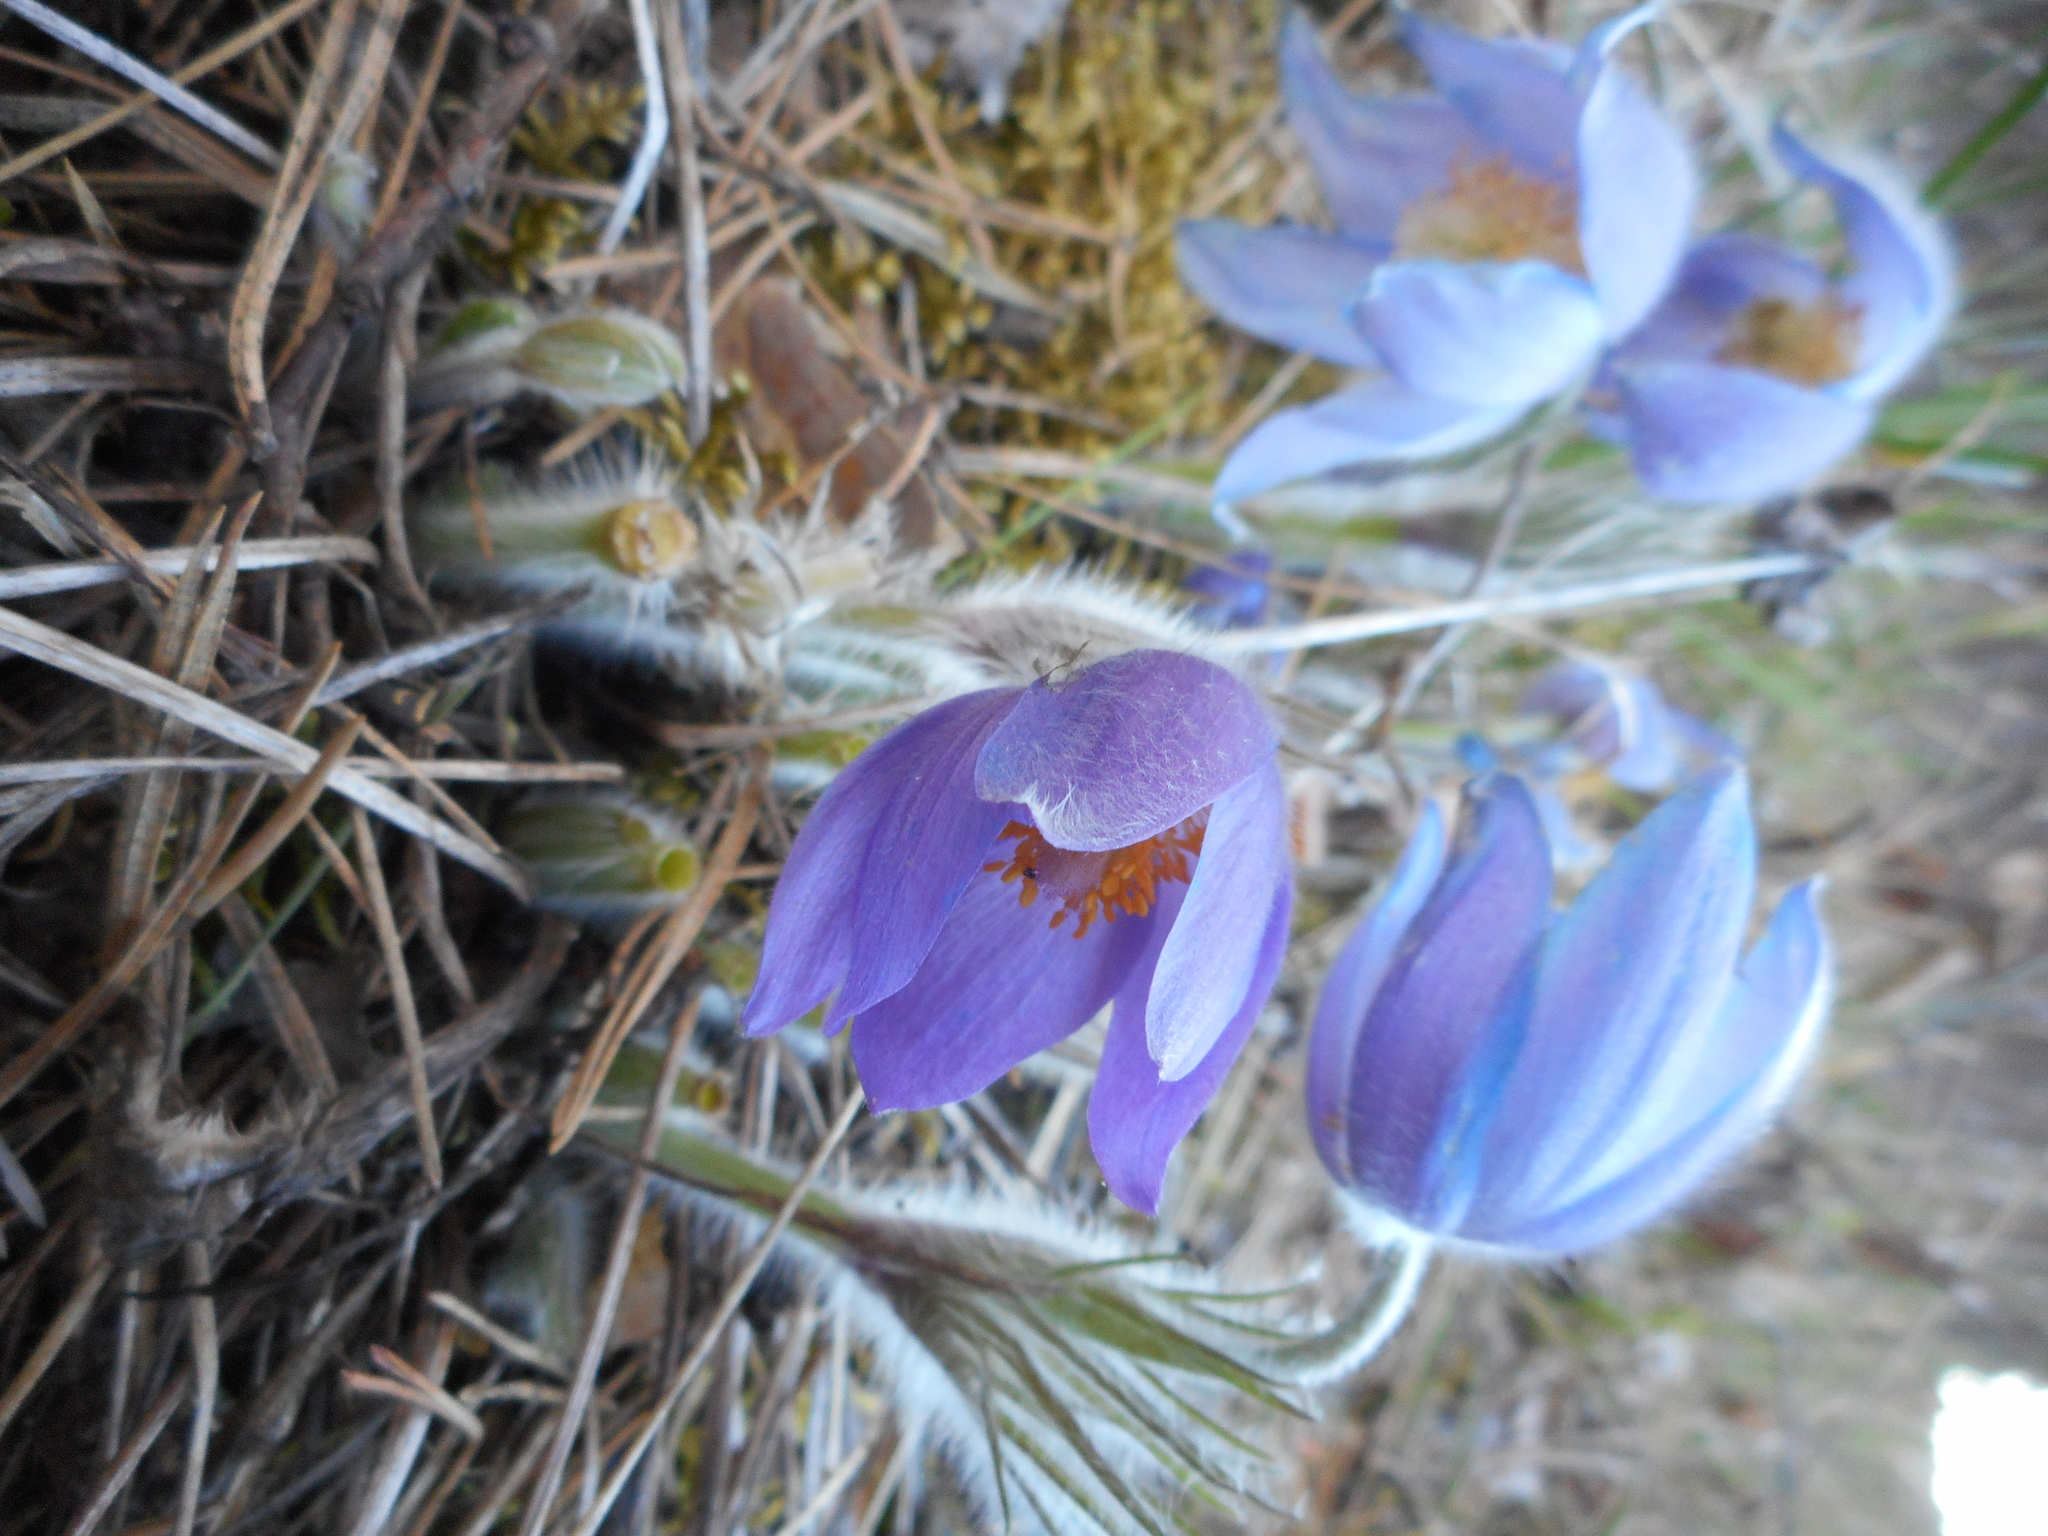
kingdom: Plantae
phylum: Tracheophyta
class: Magnoliopsida
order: Ranunculales
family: Ranunculaceae
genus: Pulsatilla
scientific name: Pulsatilla patens
